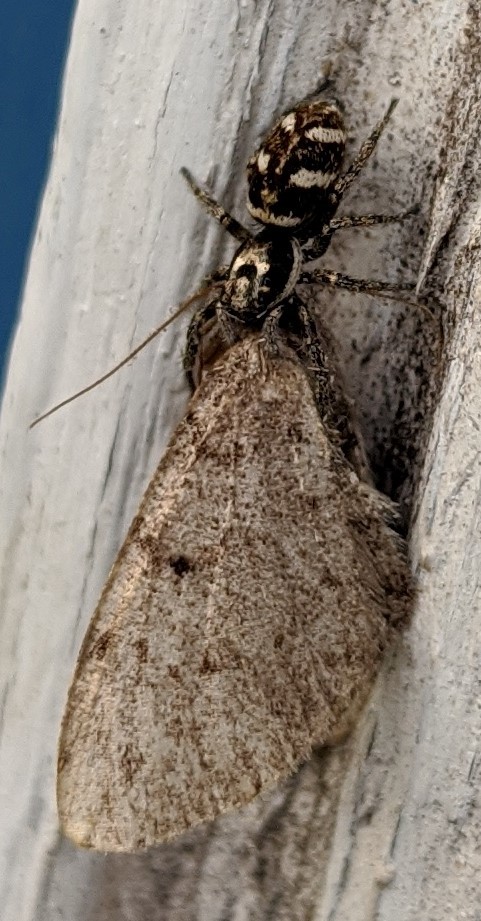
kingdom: Animalia
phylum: Arthropoda
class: Arachnida
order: Araneae
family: Salticidae
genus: Salticus
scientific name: Salticus scenicus
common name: Zebra jumper
